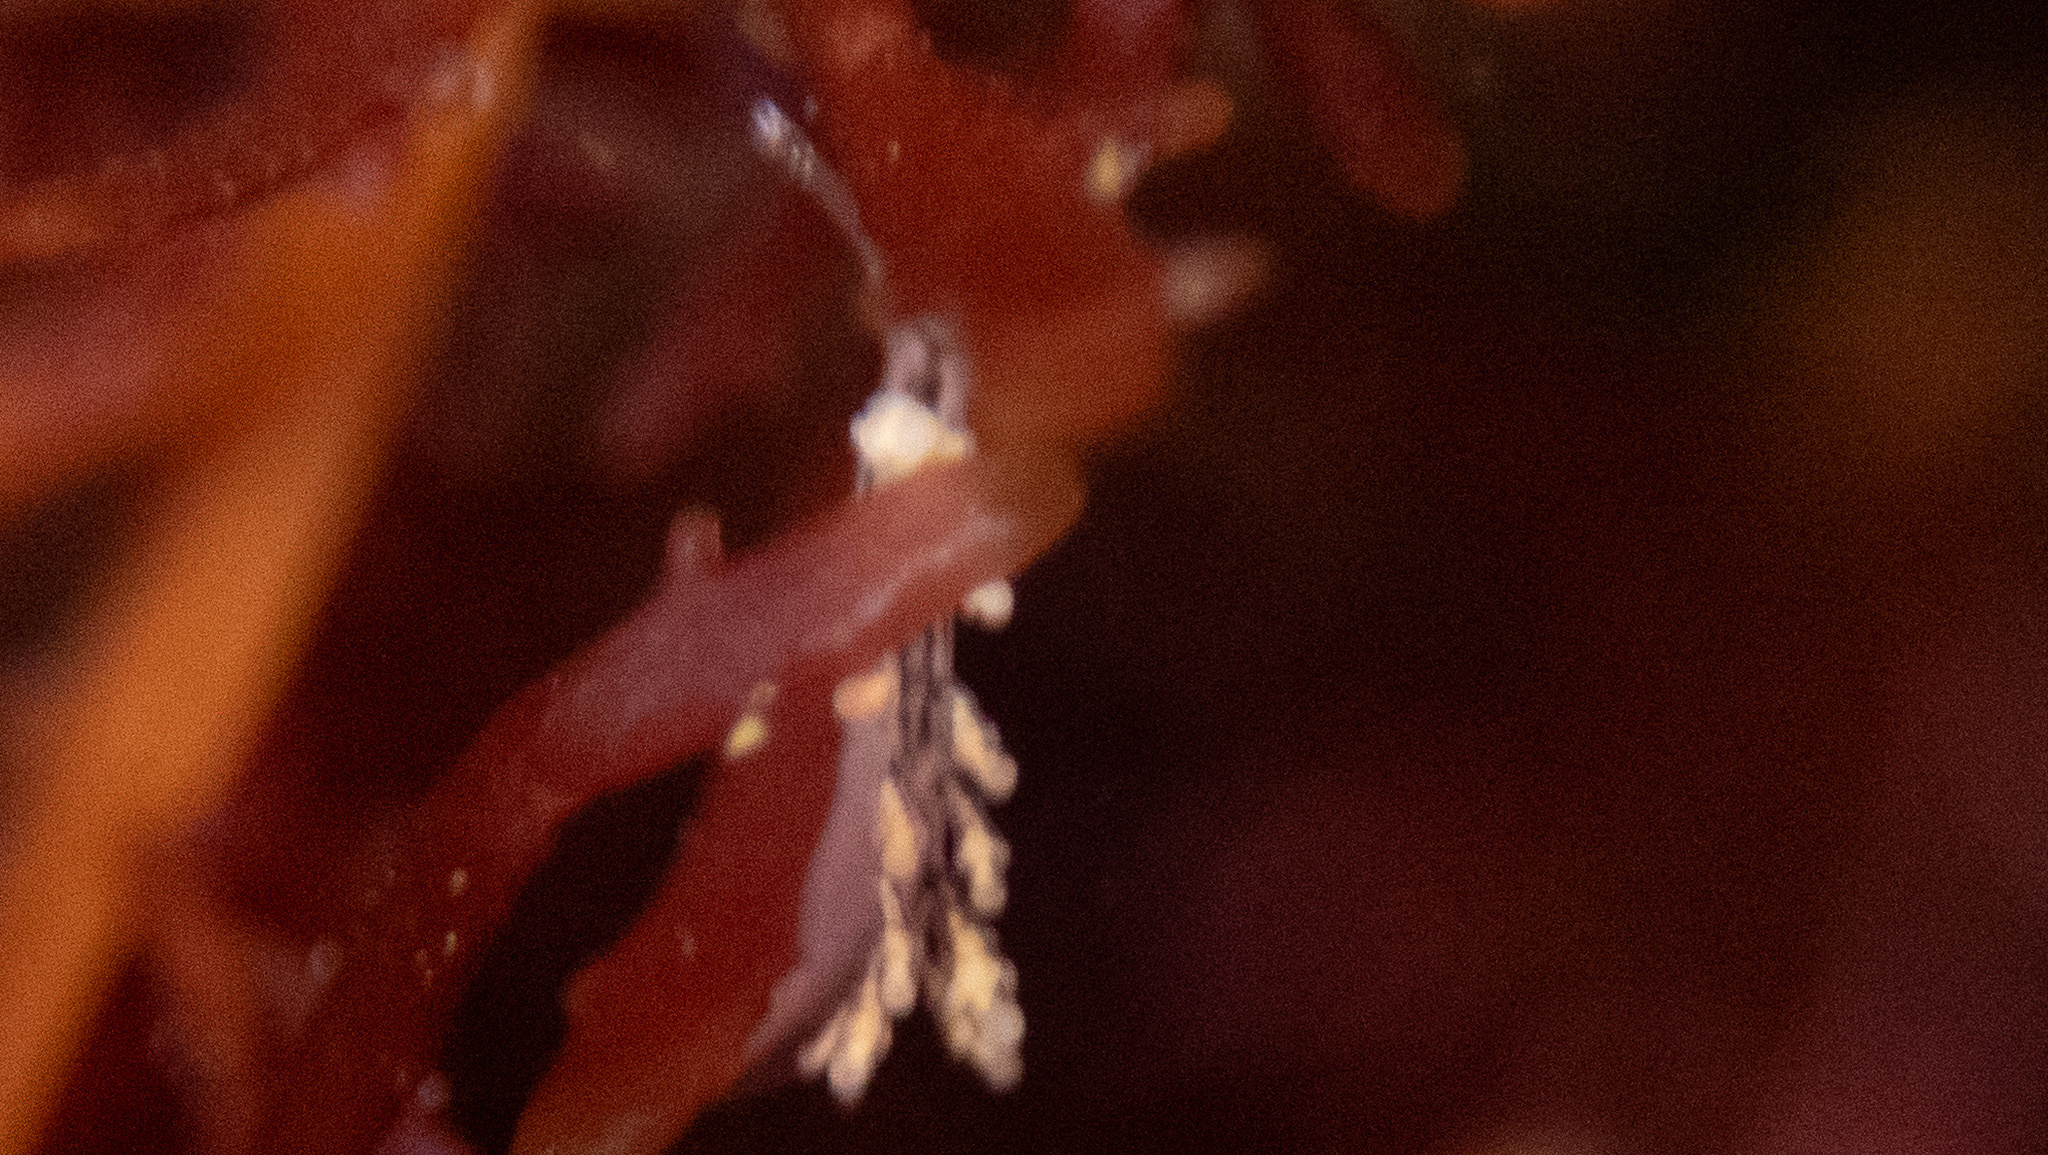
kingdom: Animalia
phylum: Mollusca
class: Gastropoda
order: Nudibranchia
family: Dotidae
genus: Doto
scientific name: Doto kya
